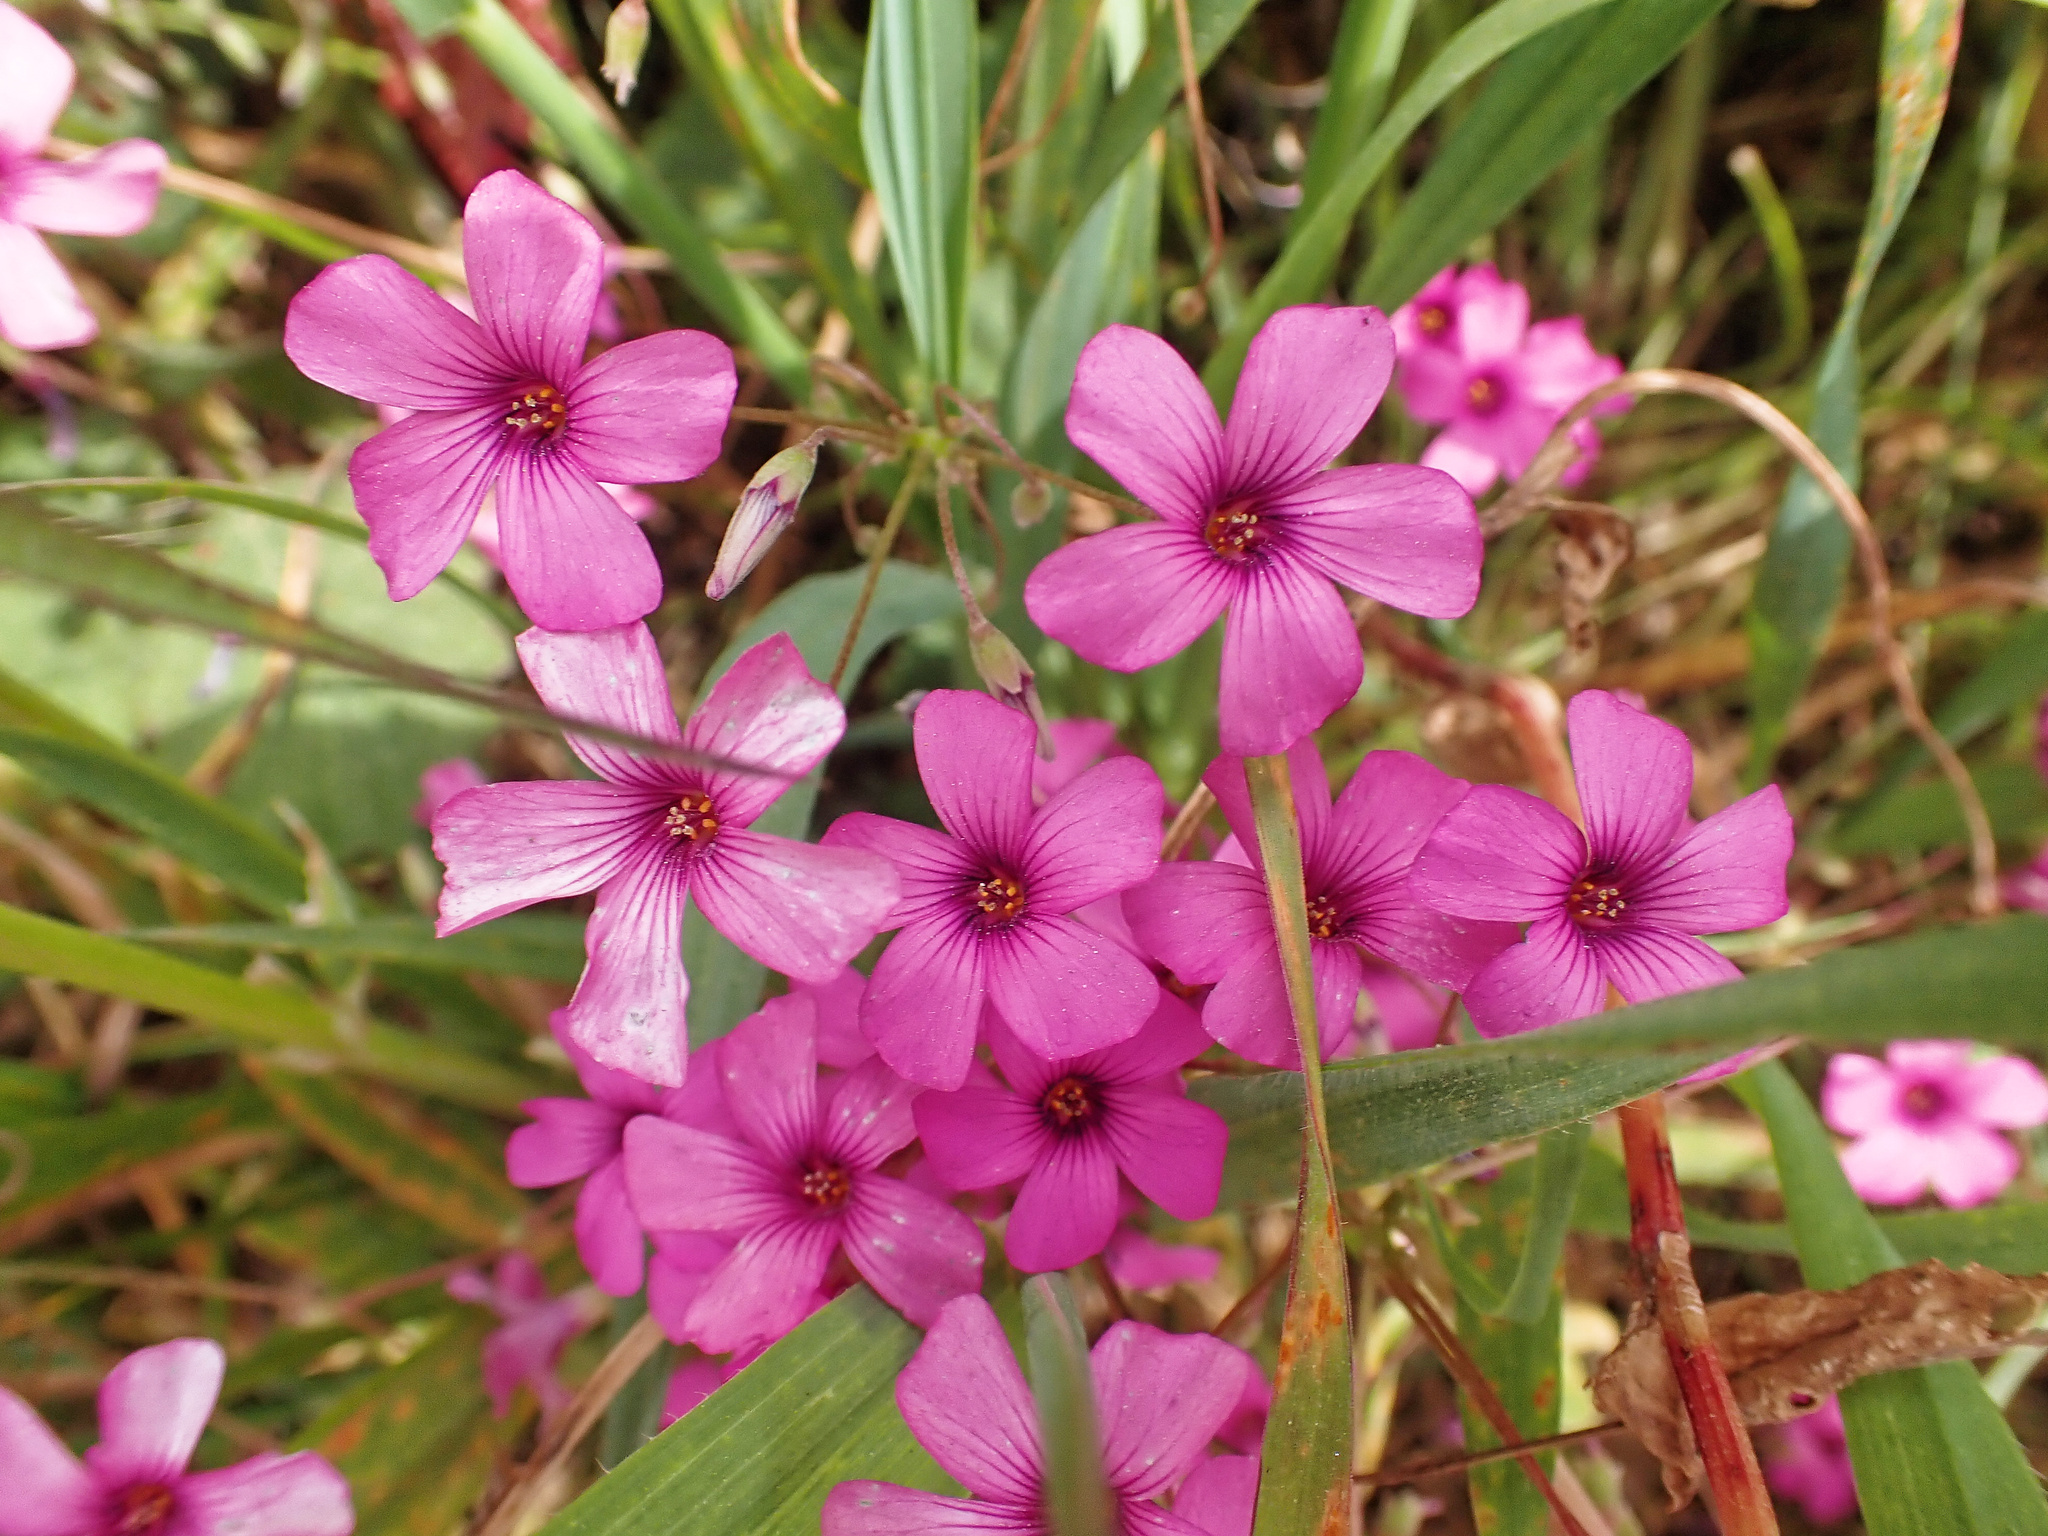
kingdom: Plantae
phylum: Tracheophyta
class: Magnoliopsida
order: Oxalidales
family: Oxalidaceae
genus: Oxalis
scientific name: Oxalis articulata
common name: Pink-sorrel
